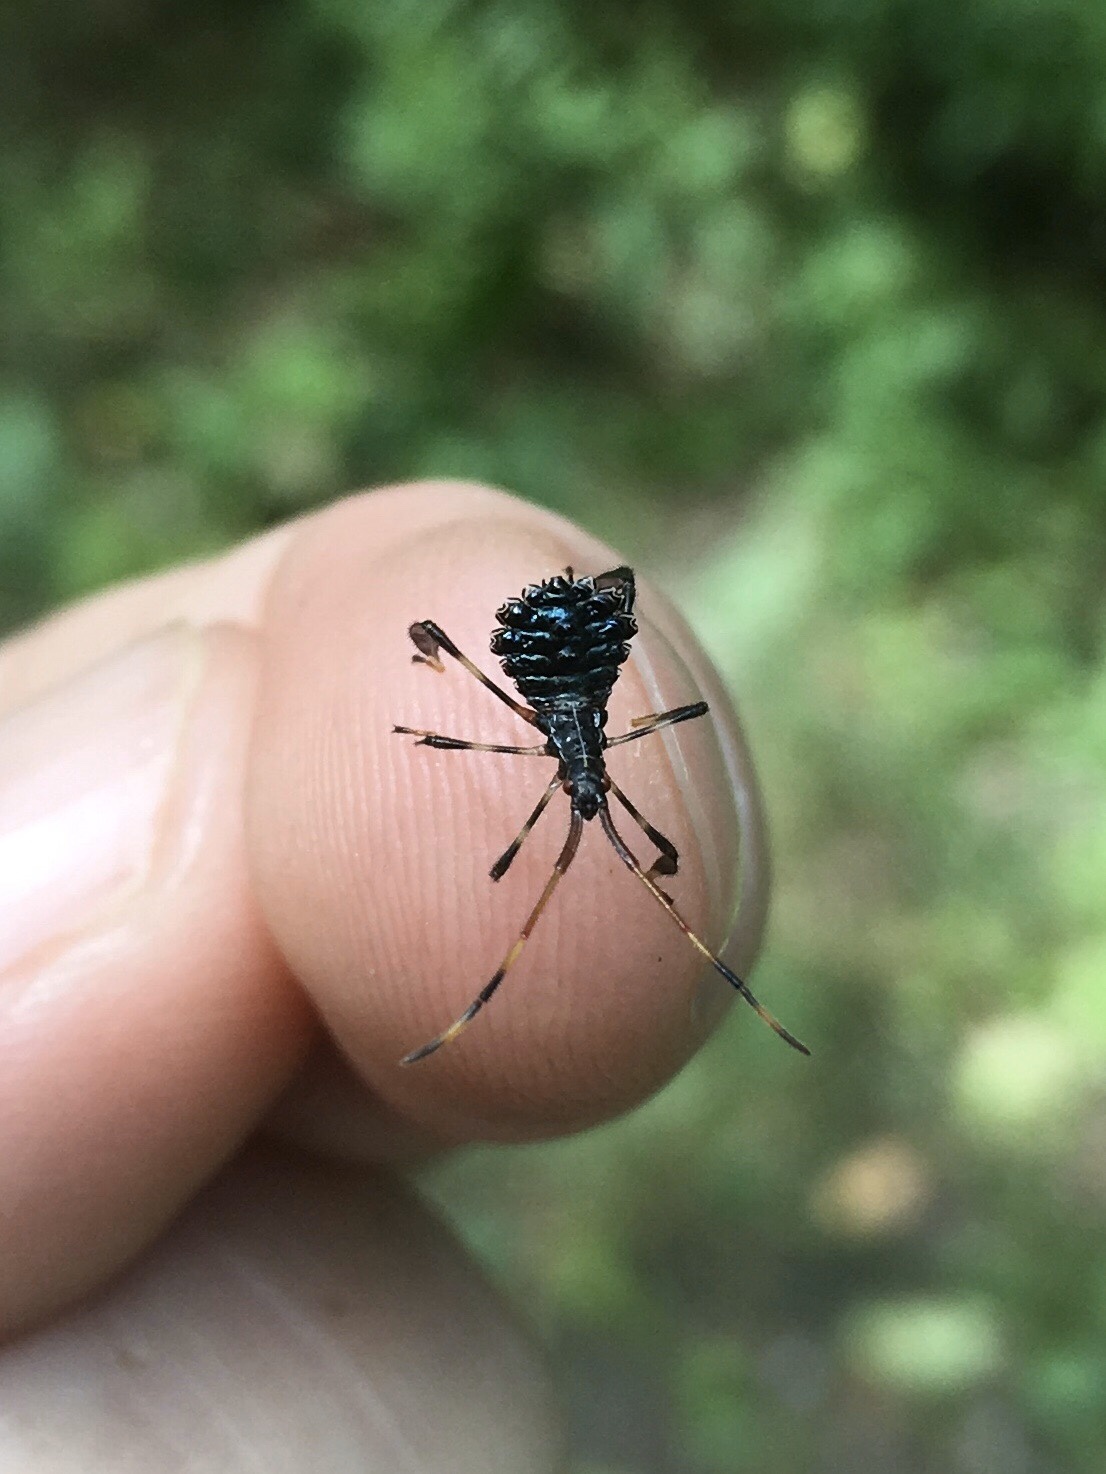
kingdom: Animalia
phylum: Arthropoda
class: Insecta
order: Hemiptera
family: Coreidae
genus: Acanthocephala
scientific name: Acanthocephala terminalis
